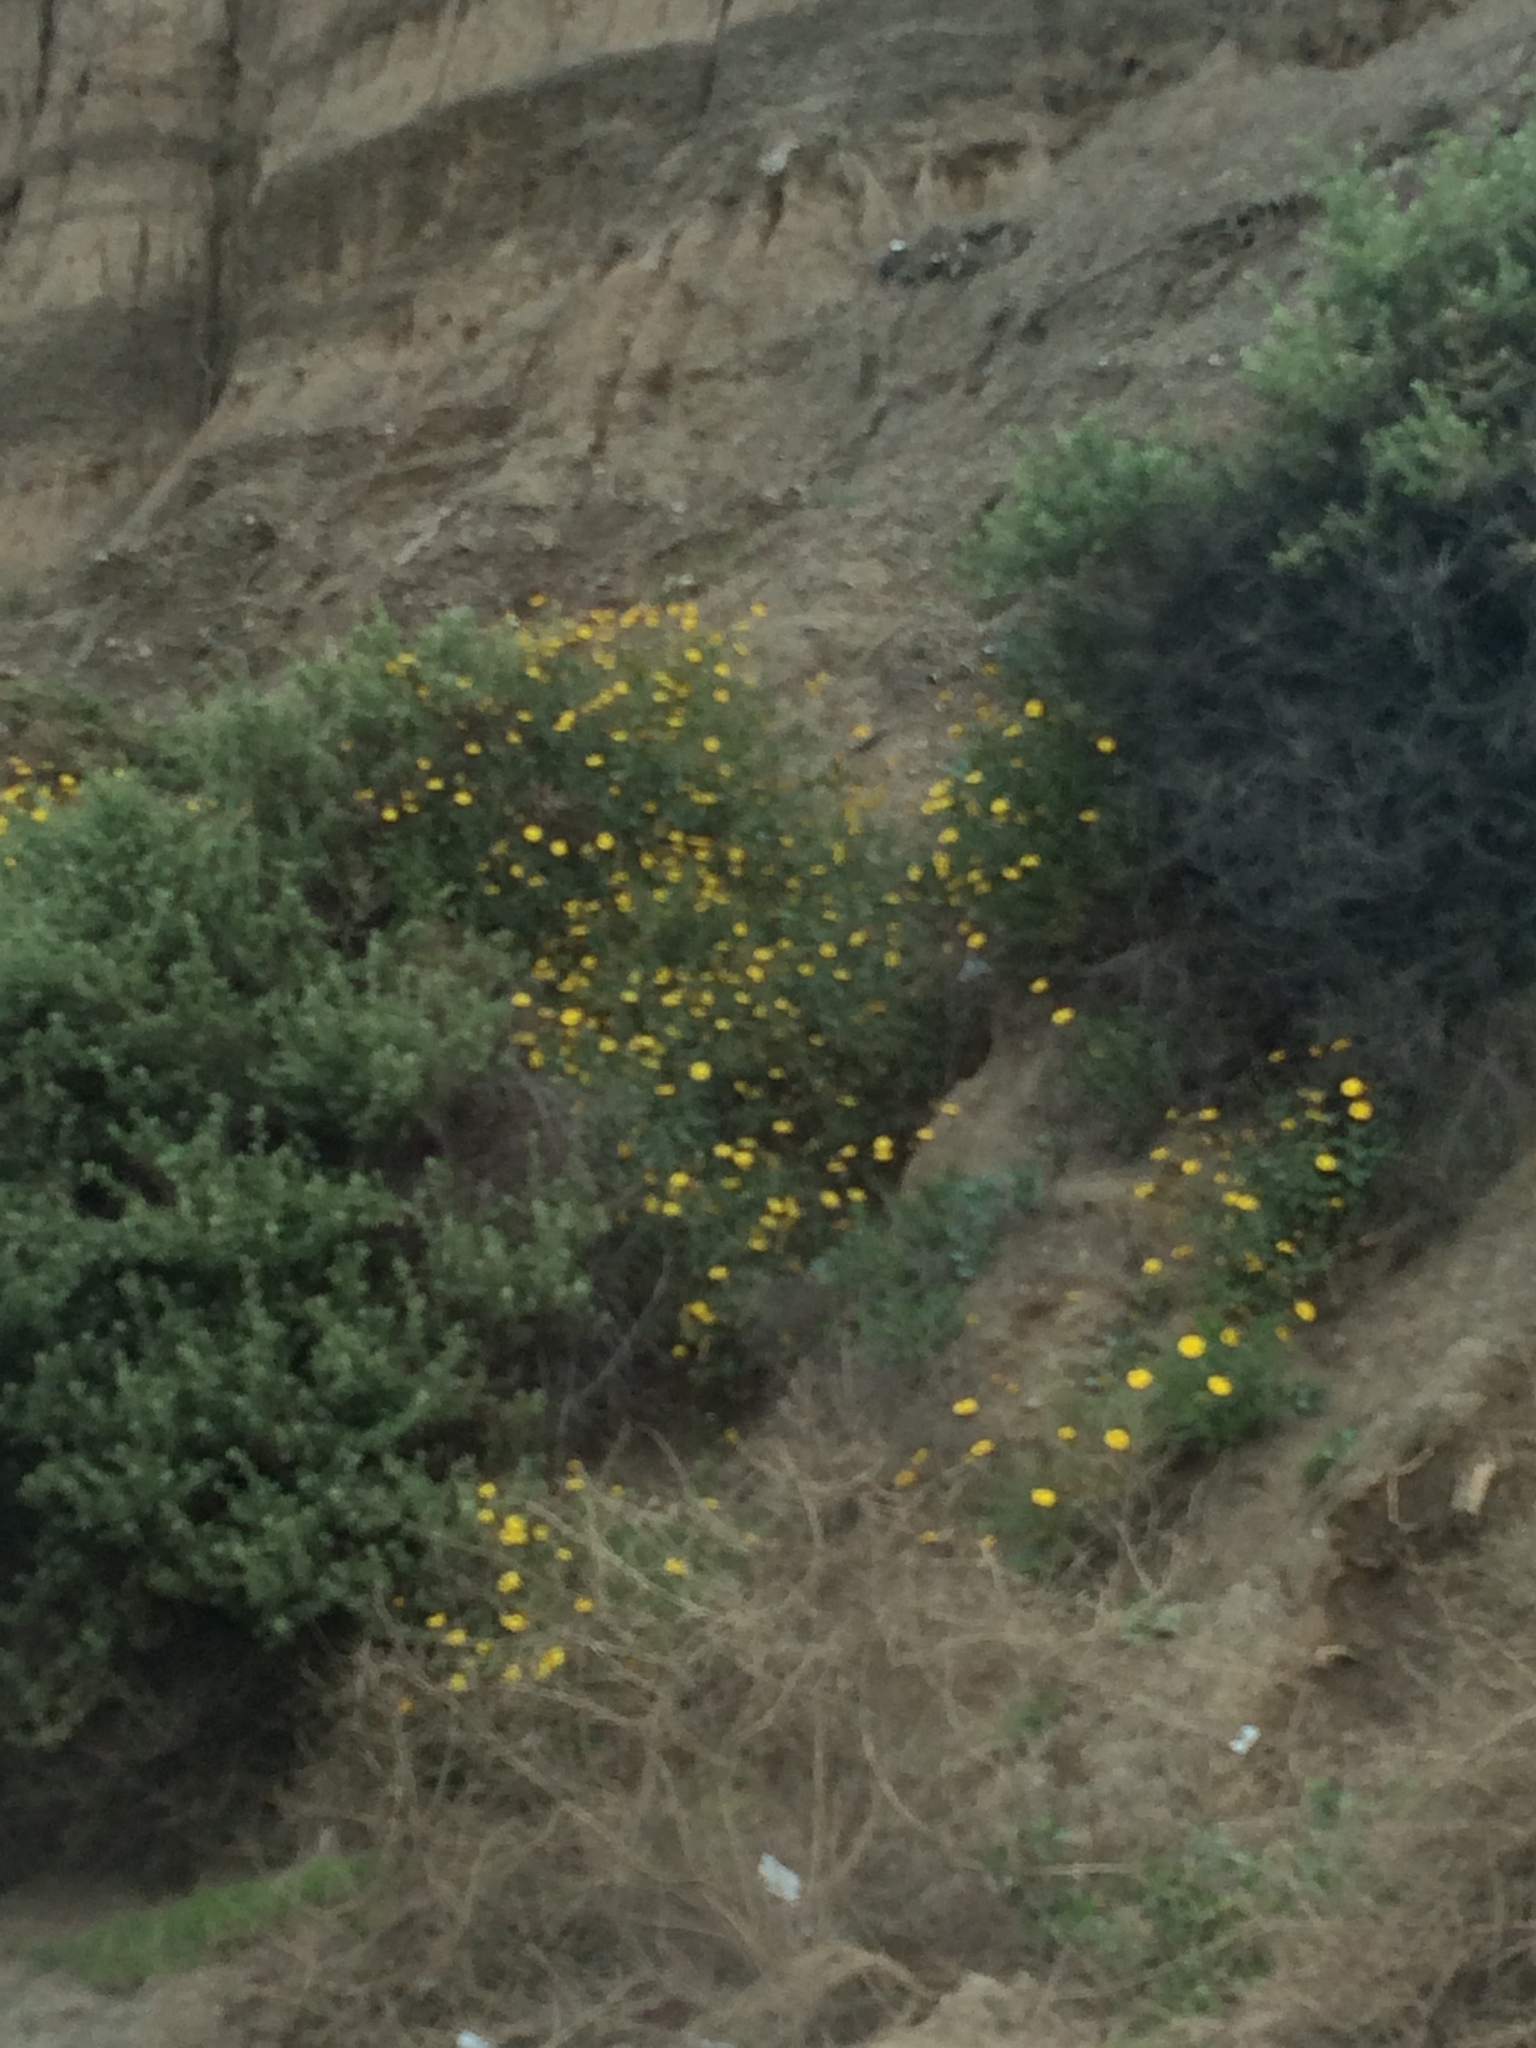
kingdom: Plantae
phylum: Tracheophyta
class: Magnoliopsida
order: Asterales
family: Asteraceae
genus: Encelia
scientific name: Encelia californica
